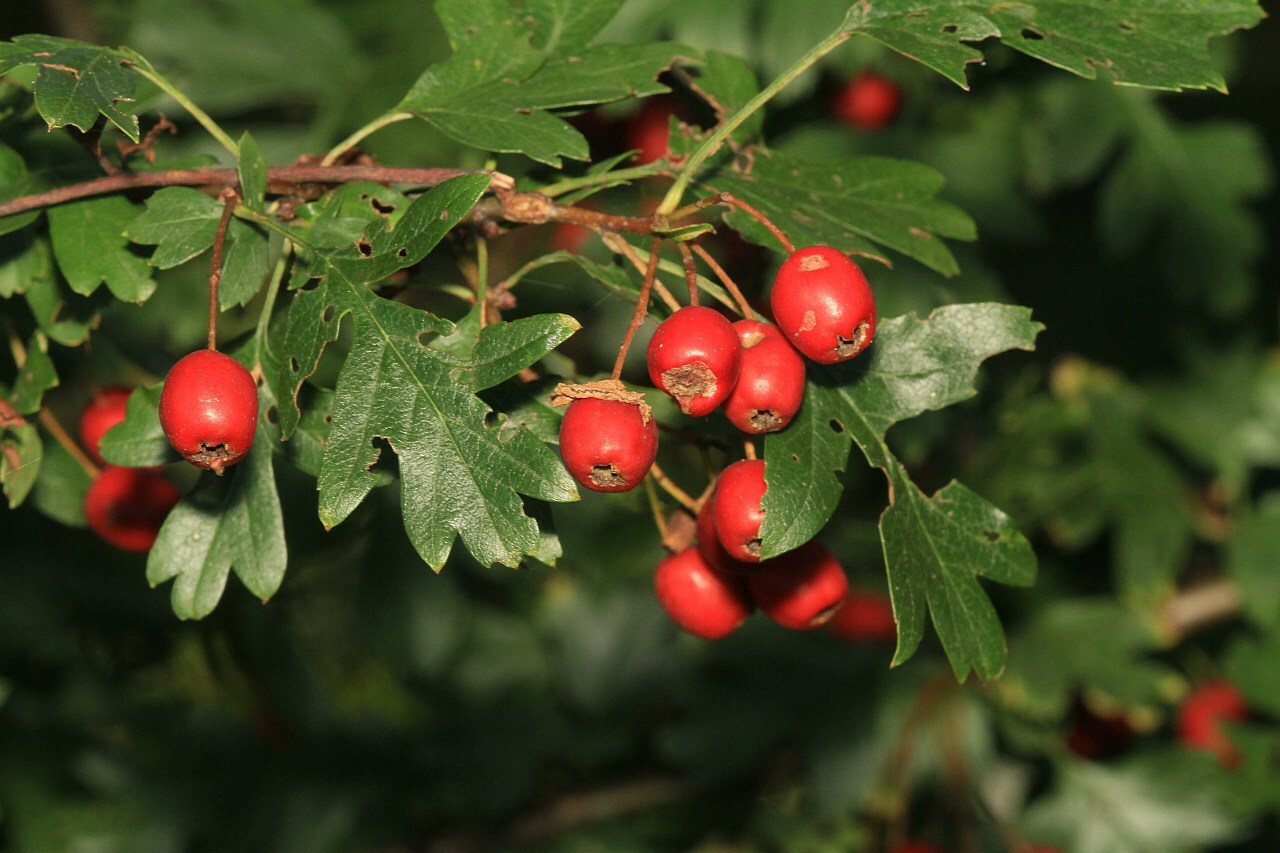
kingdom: Plantae
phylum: Tracheophyta
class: Magnoliopsida
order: Rosales
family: Rosaceae
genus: Crataegus
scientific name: Crataegus monogyna
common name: Hawthorn
